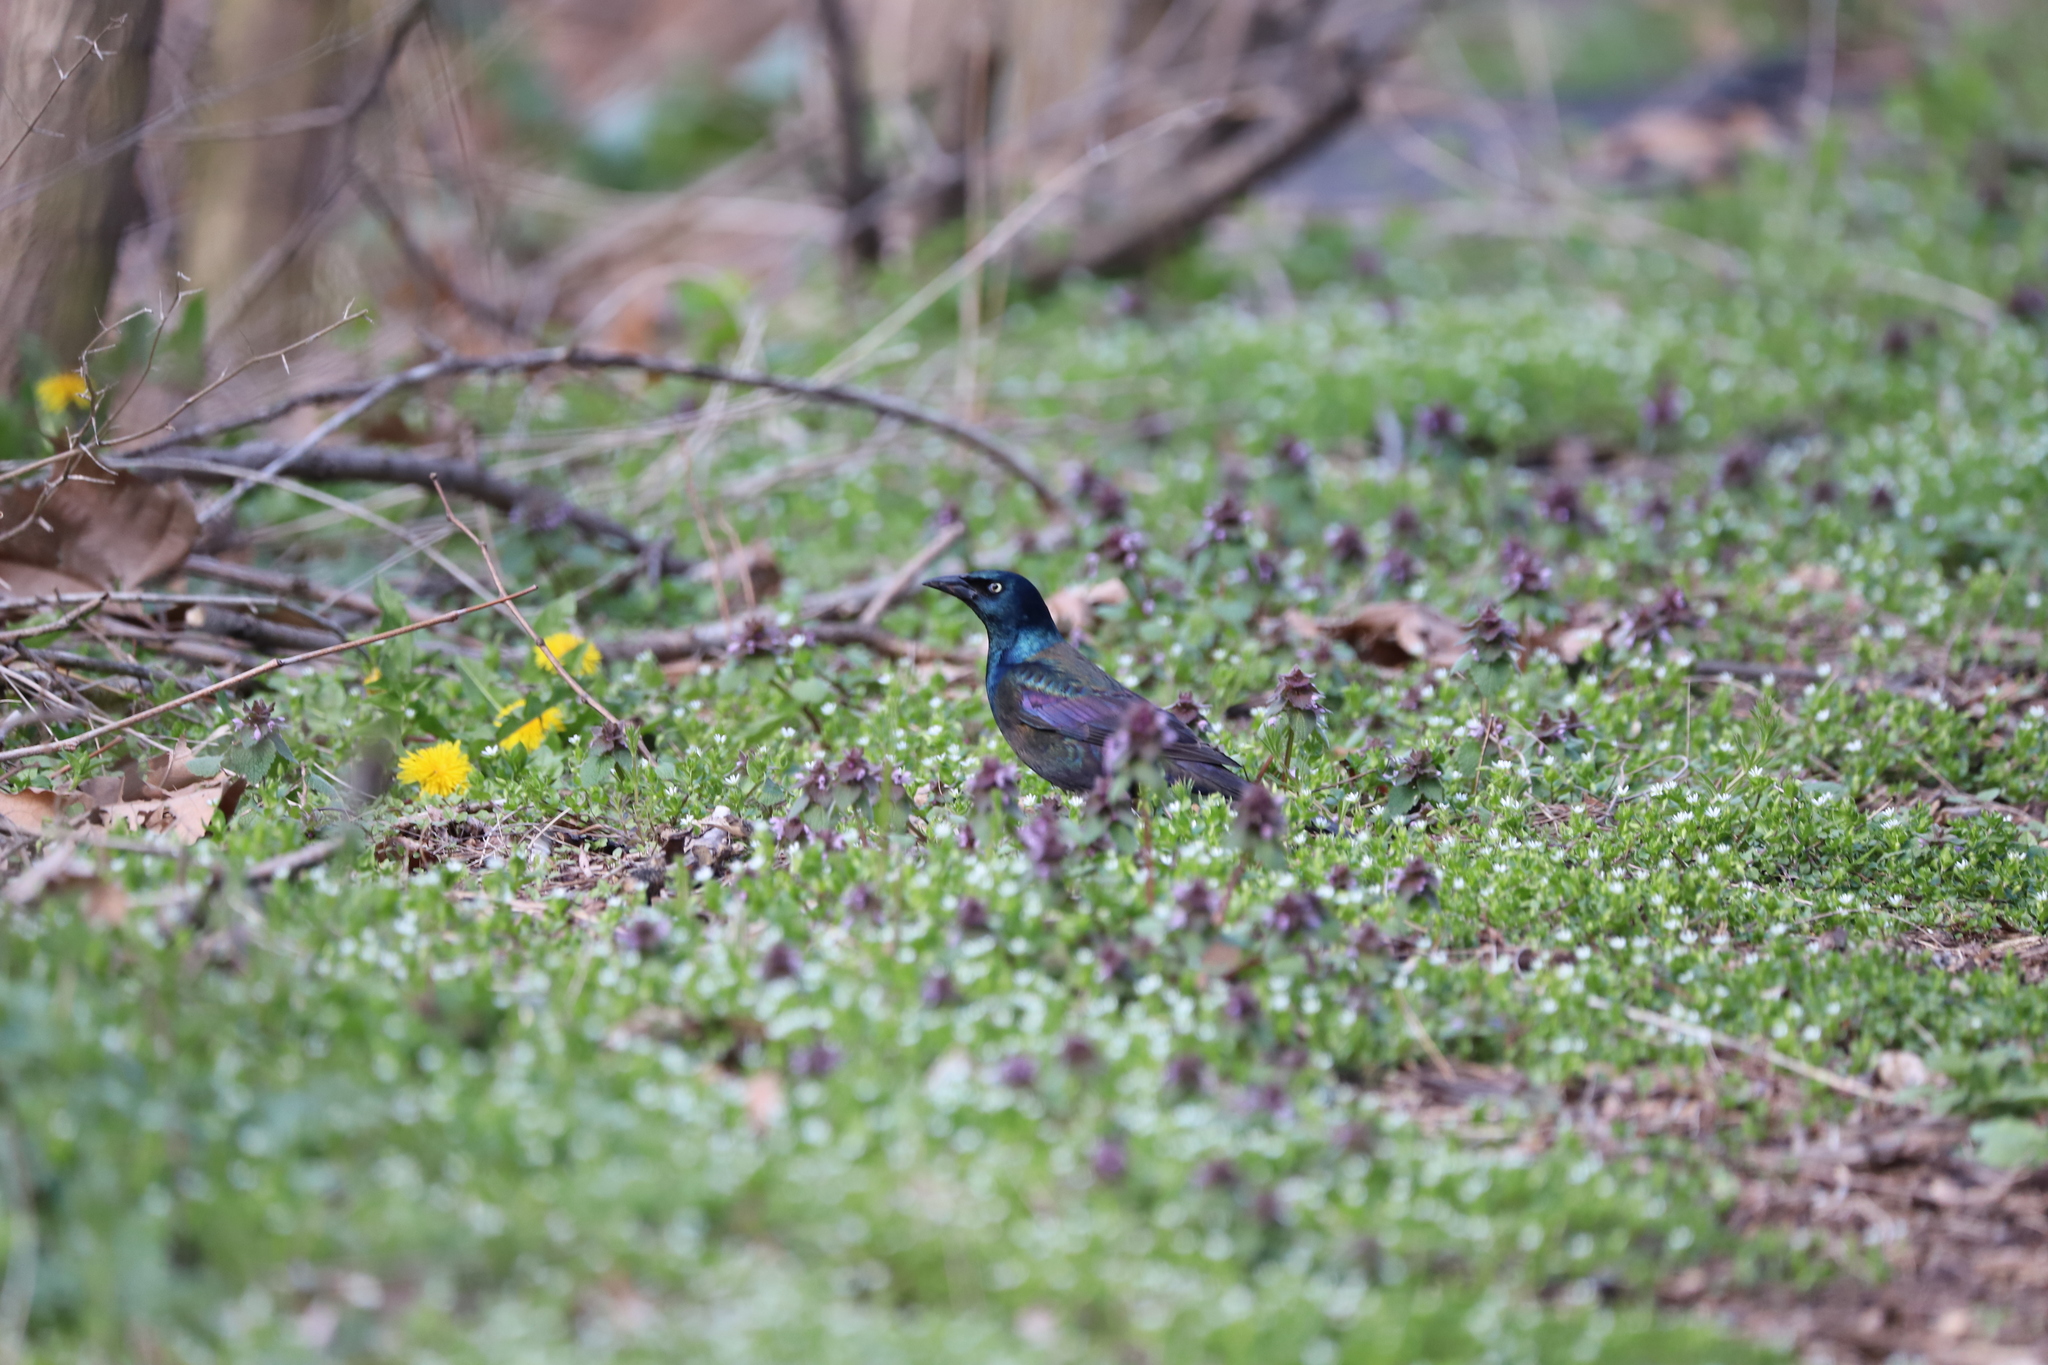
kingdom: Animalia
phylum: Chordata
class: Aves
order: Passeriformes
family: Icteridae
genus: Quiscalus
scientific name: Quiscalus quiscula
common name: Common grackle
